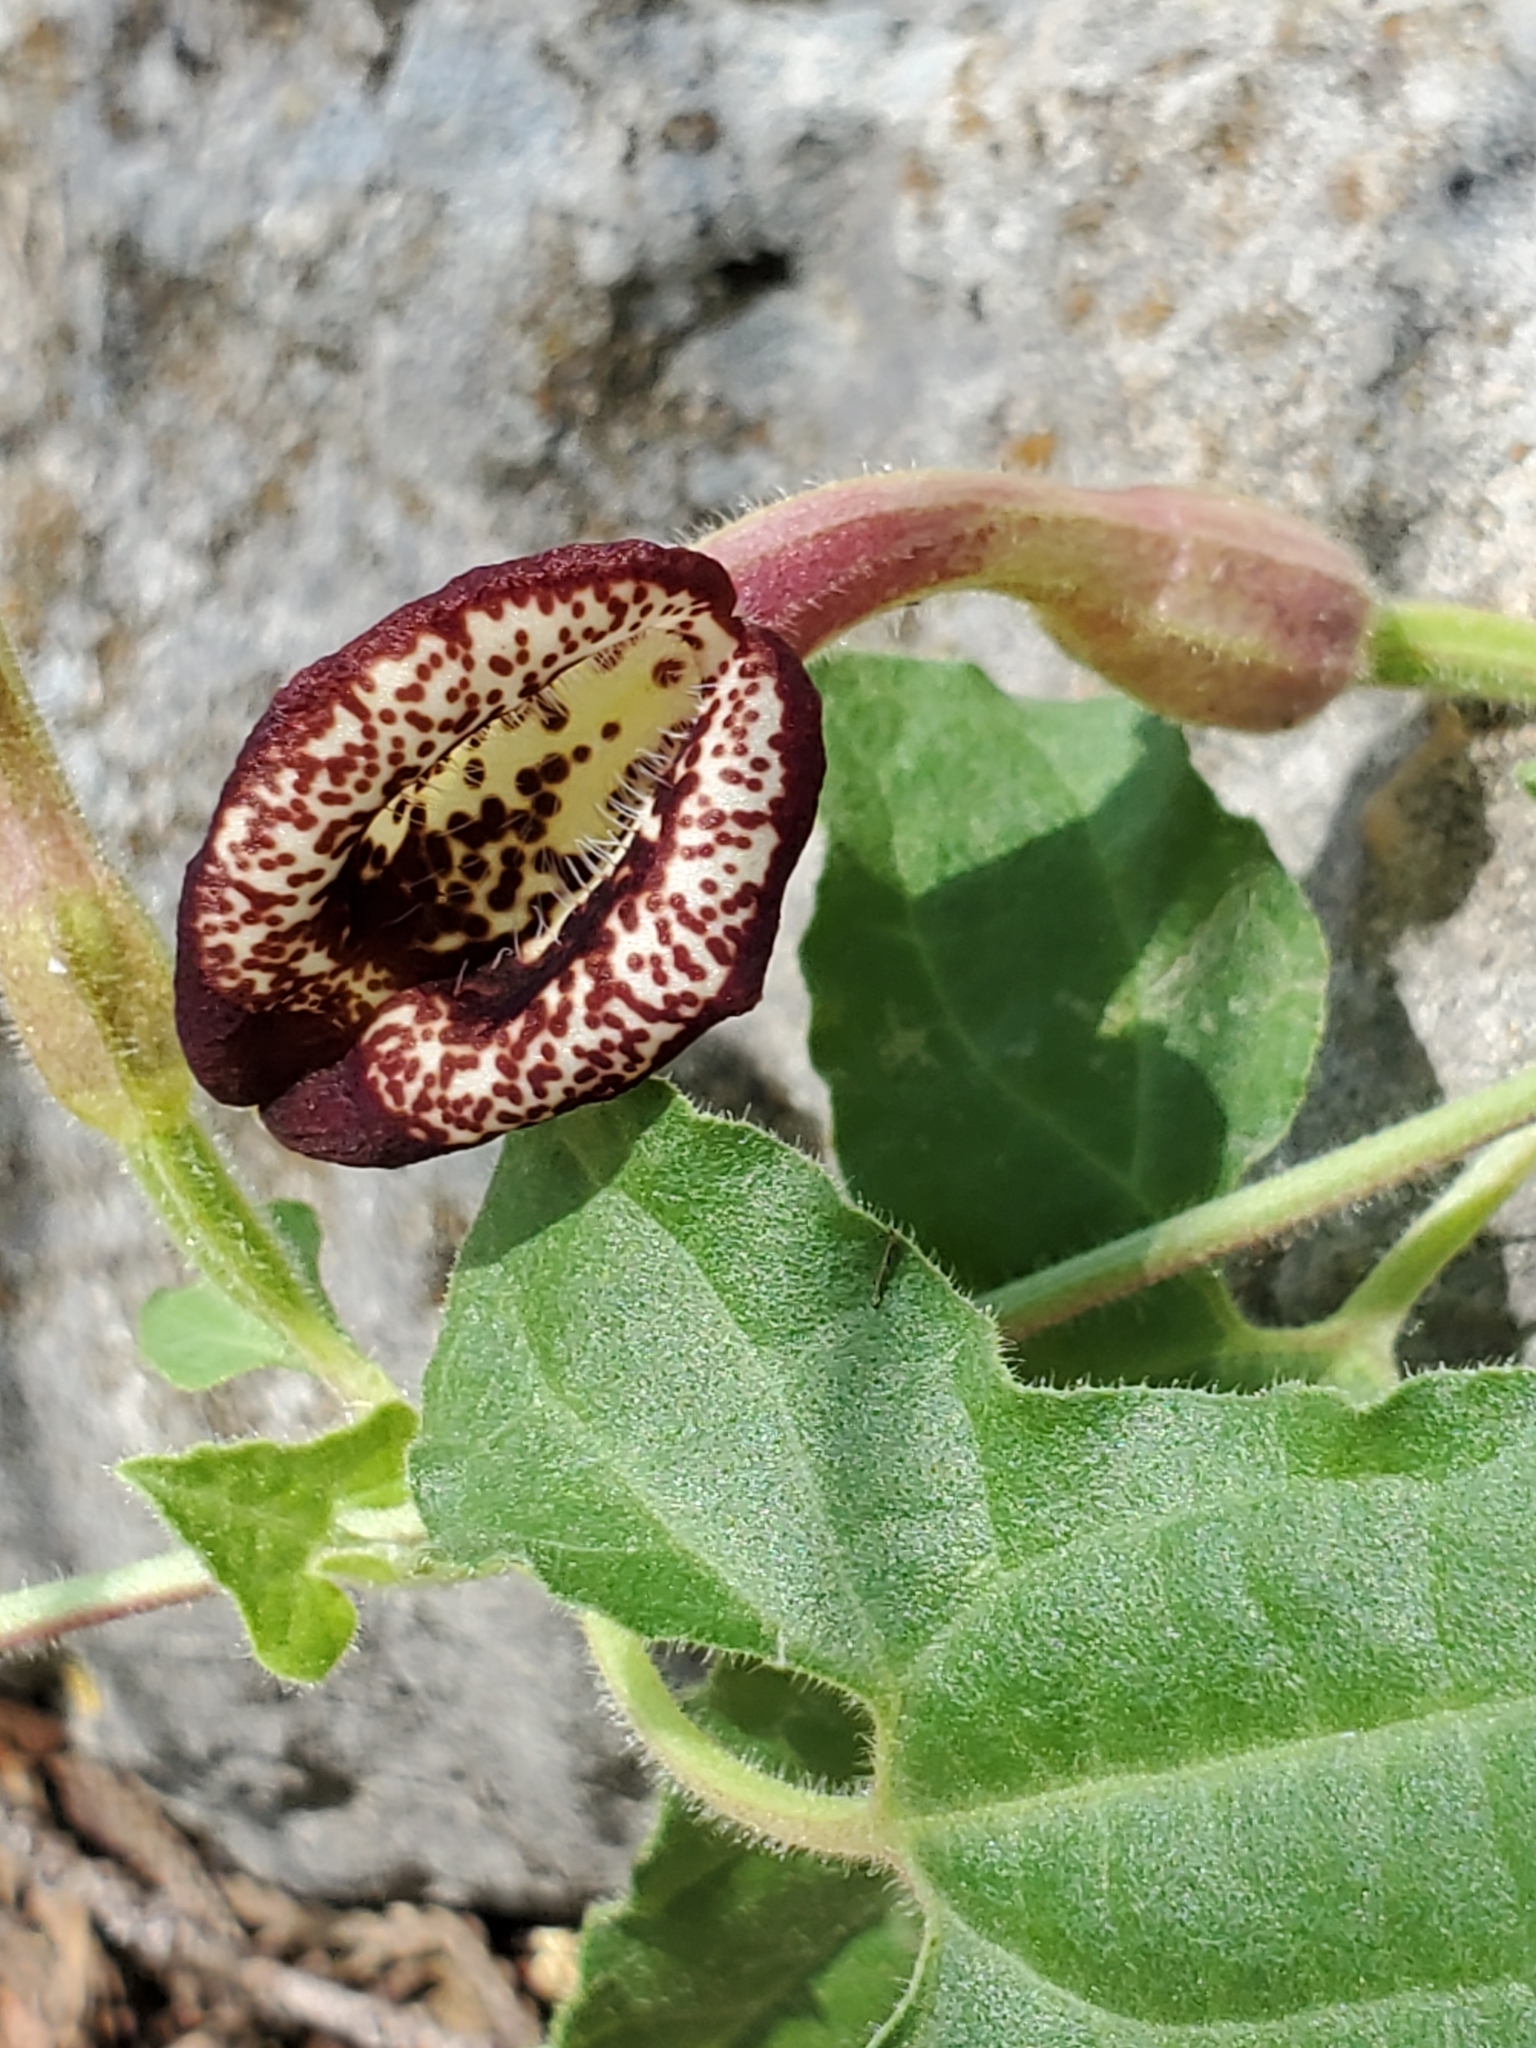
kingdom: Plantae
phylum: Tracheophyta
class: Magnoliopsida
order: Piperales
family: Aristolochiaceae
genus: Aristolochia
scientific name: Aristolochia coryi
